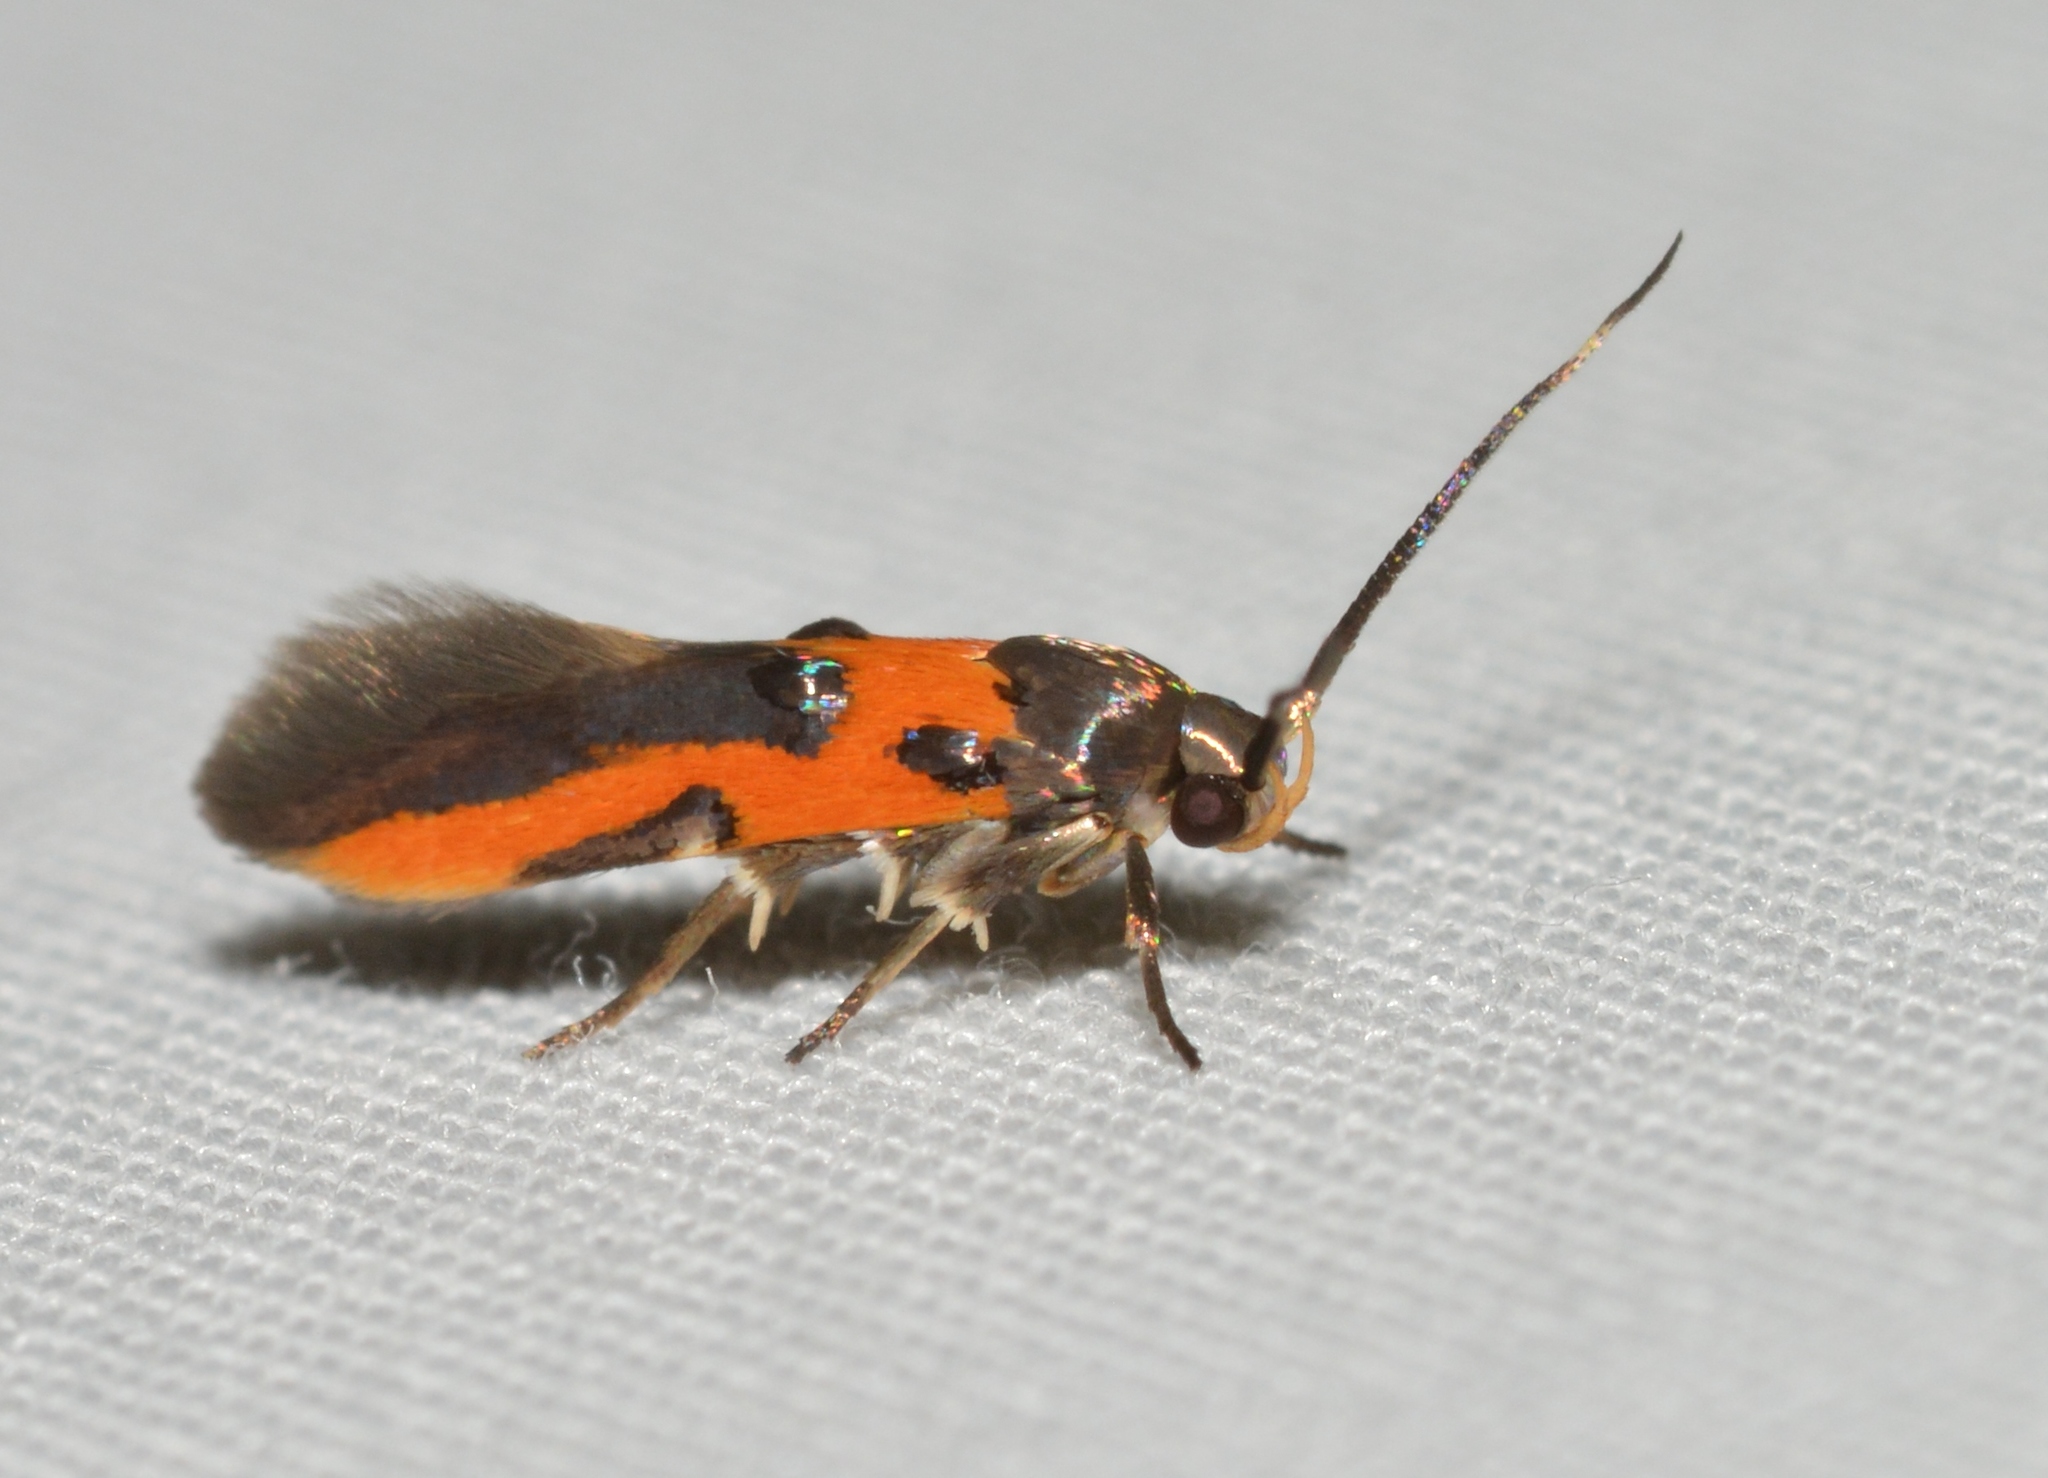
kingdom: Animalia
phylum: Arthropoda
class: Insecta
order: Lepidoptera
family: Cosmopterigidae
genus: Euclemensia
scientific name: Euclemensia bassettella
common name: Kermes scale moth
